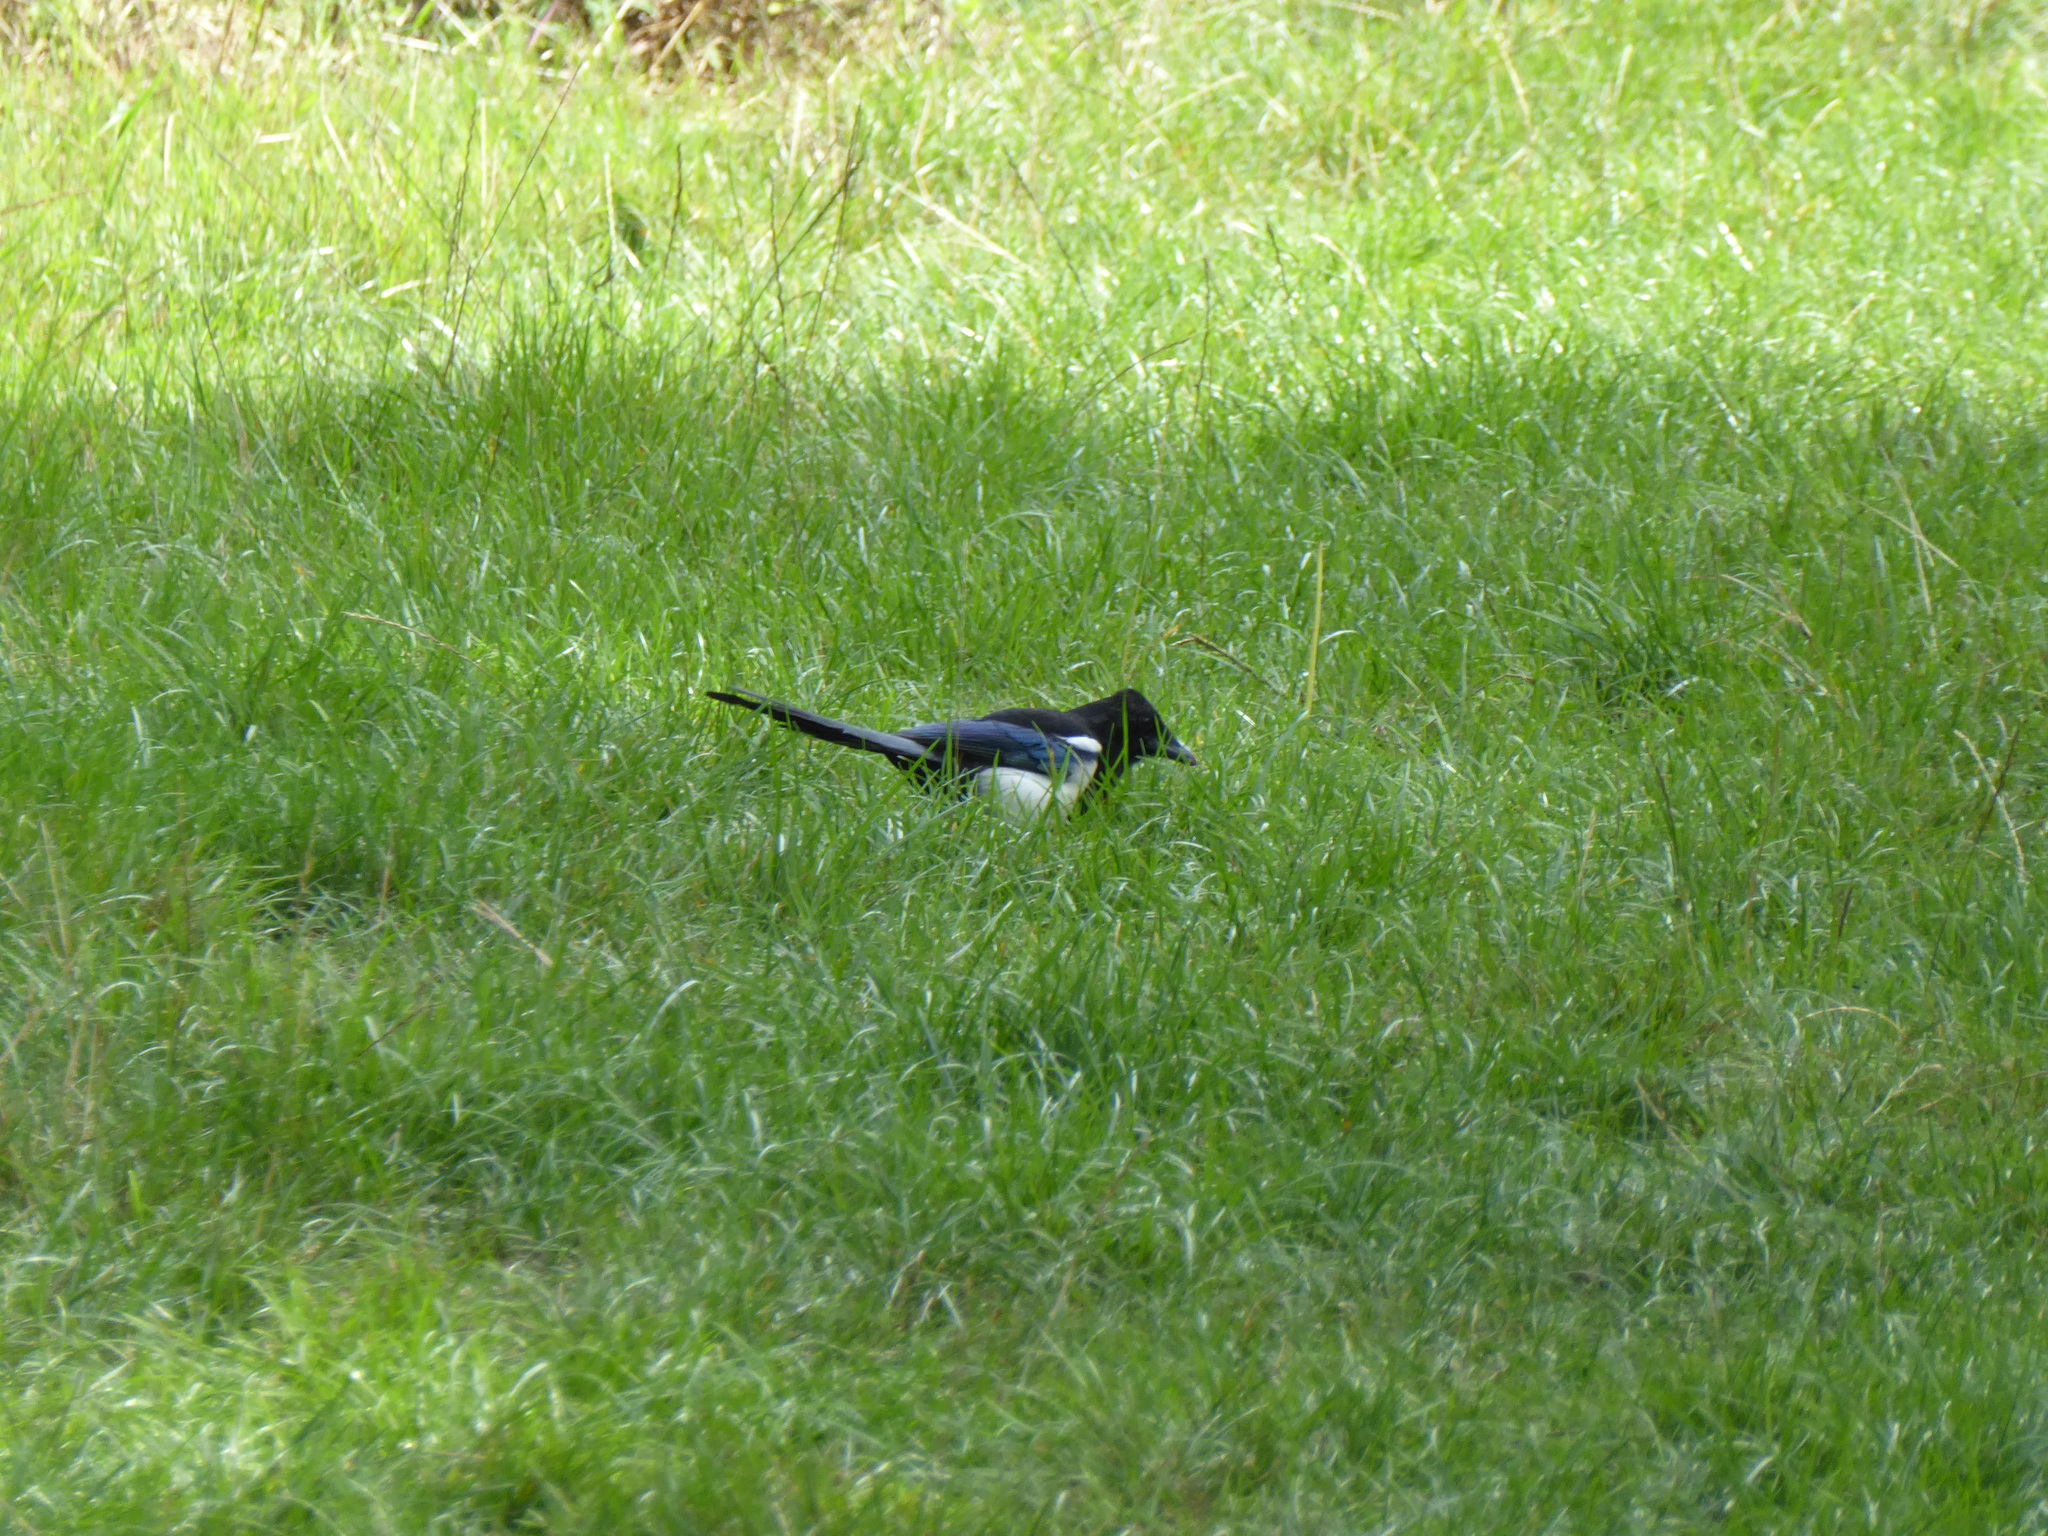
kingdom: Animalia
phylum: Chordata
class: Aves
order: Passeriformes
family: Corvidae
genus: Pica
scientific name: Pica pica
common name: Eurasian magpie
